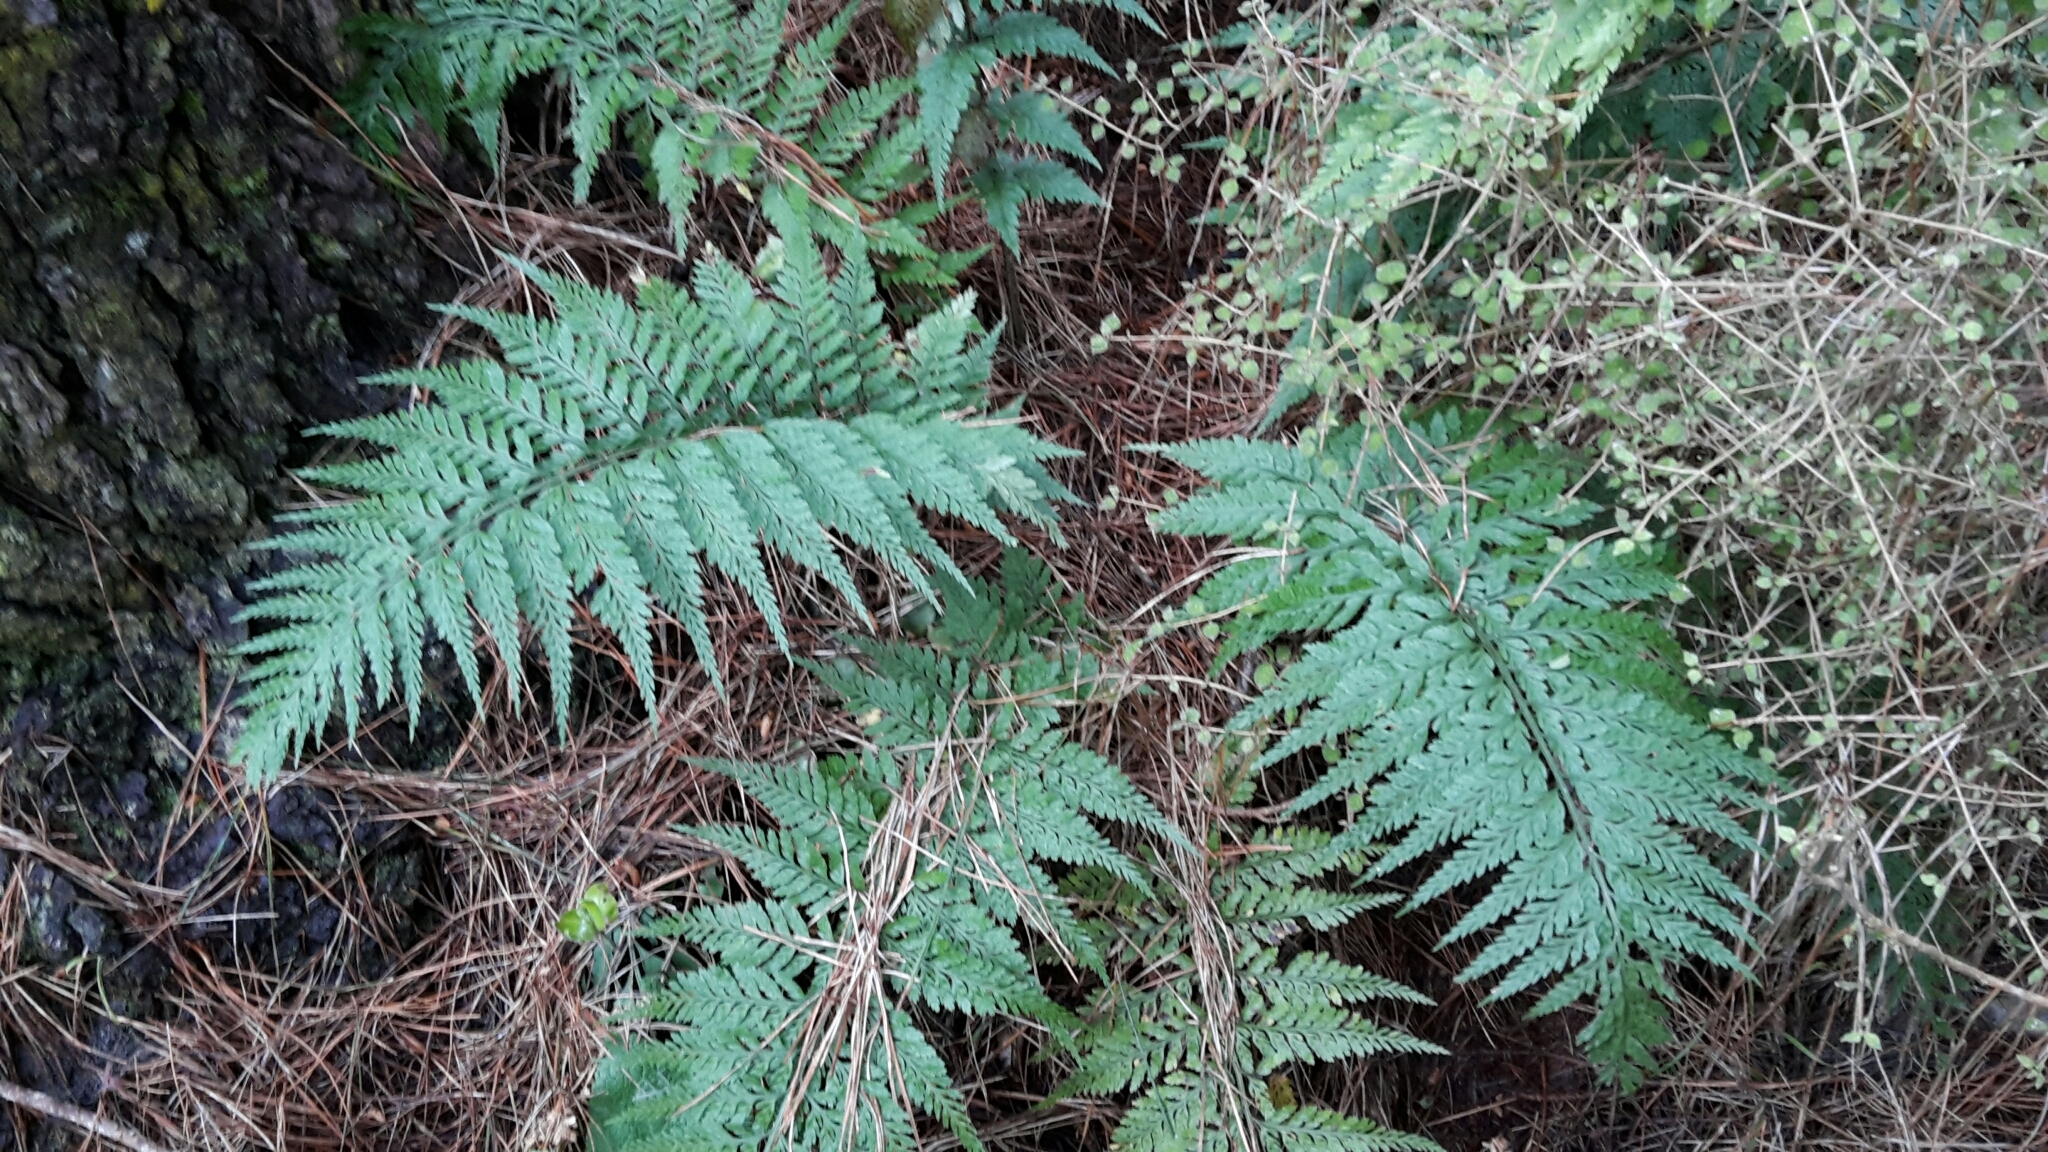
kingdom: Plantae
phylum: Tracheophyta
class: Polypodiopsida
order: Polypodiales
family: Aspleniaceae
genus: Asplenium
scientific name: Asplenium
